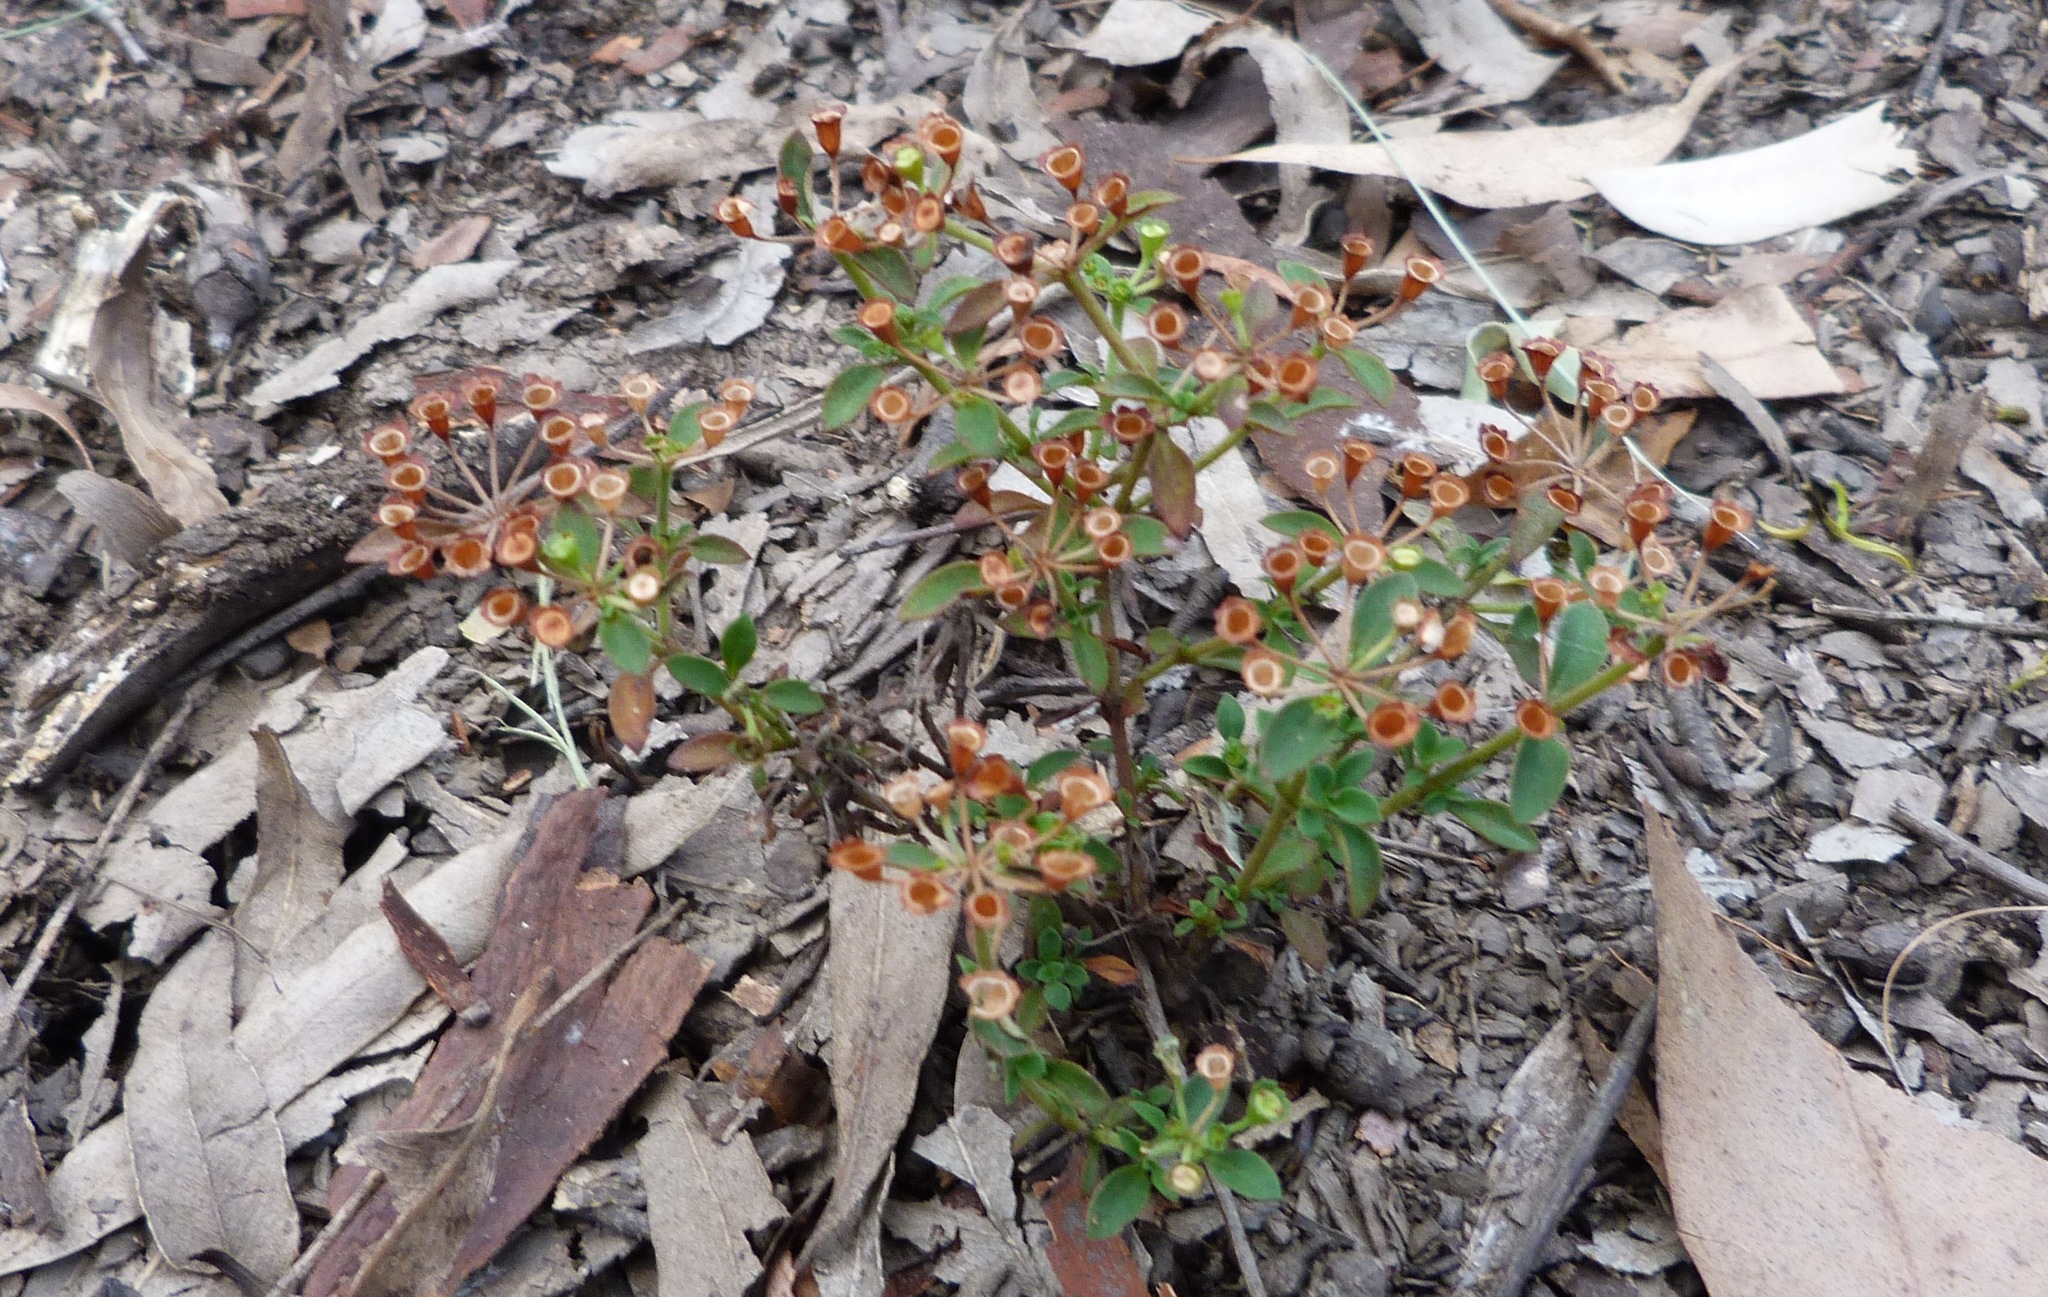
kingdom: Plantae
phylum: Tracheophyta
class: Magnoliopsida
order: Gentianales
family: Rubiaceae
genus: Pomax
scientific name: Pomax umbellata
